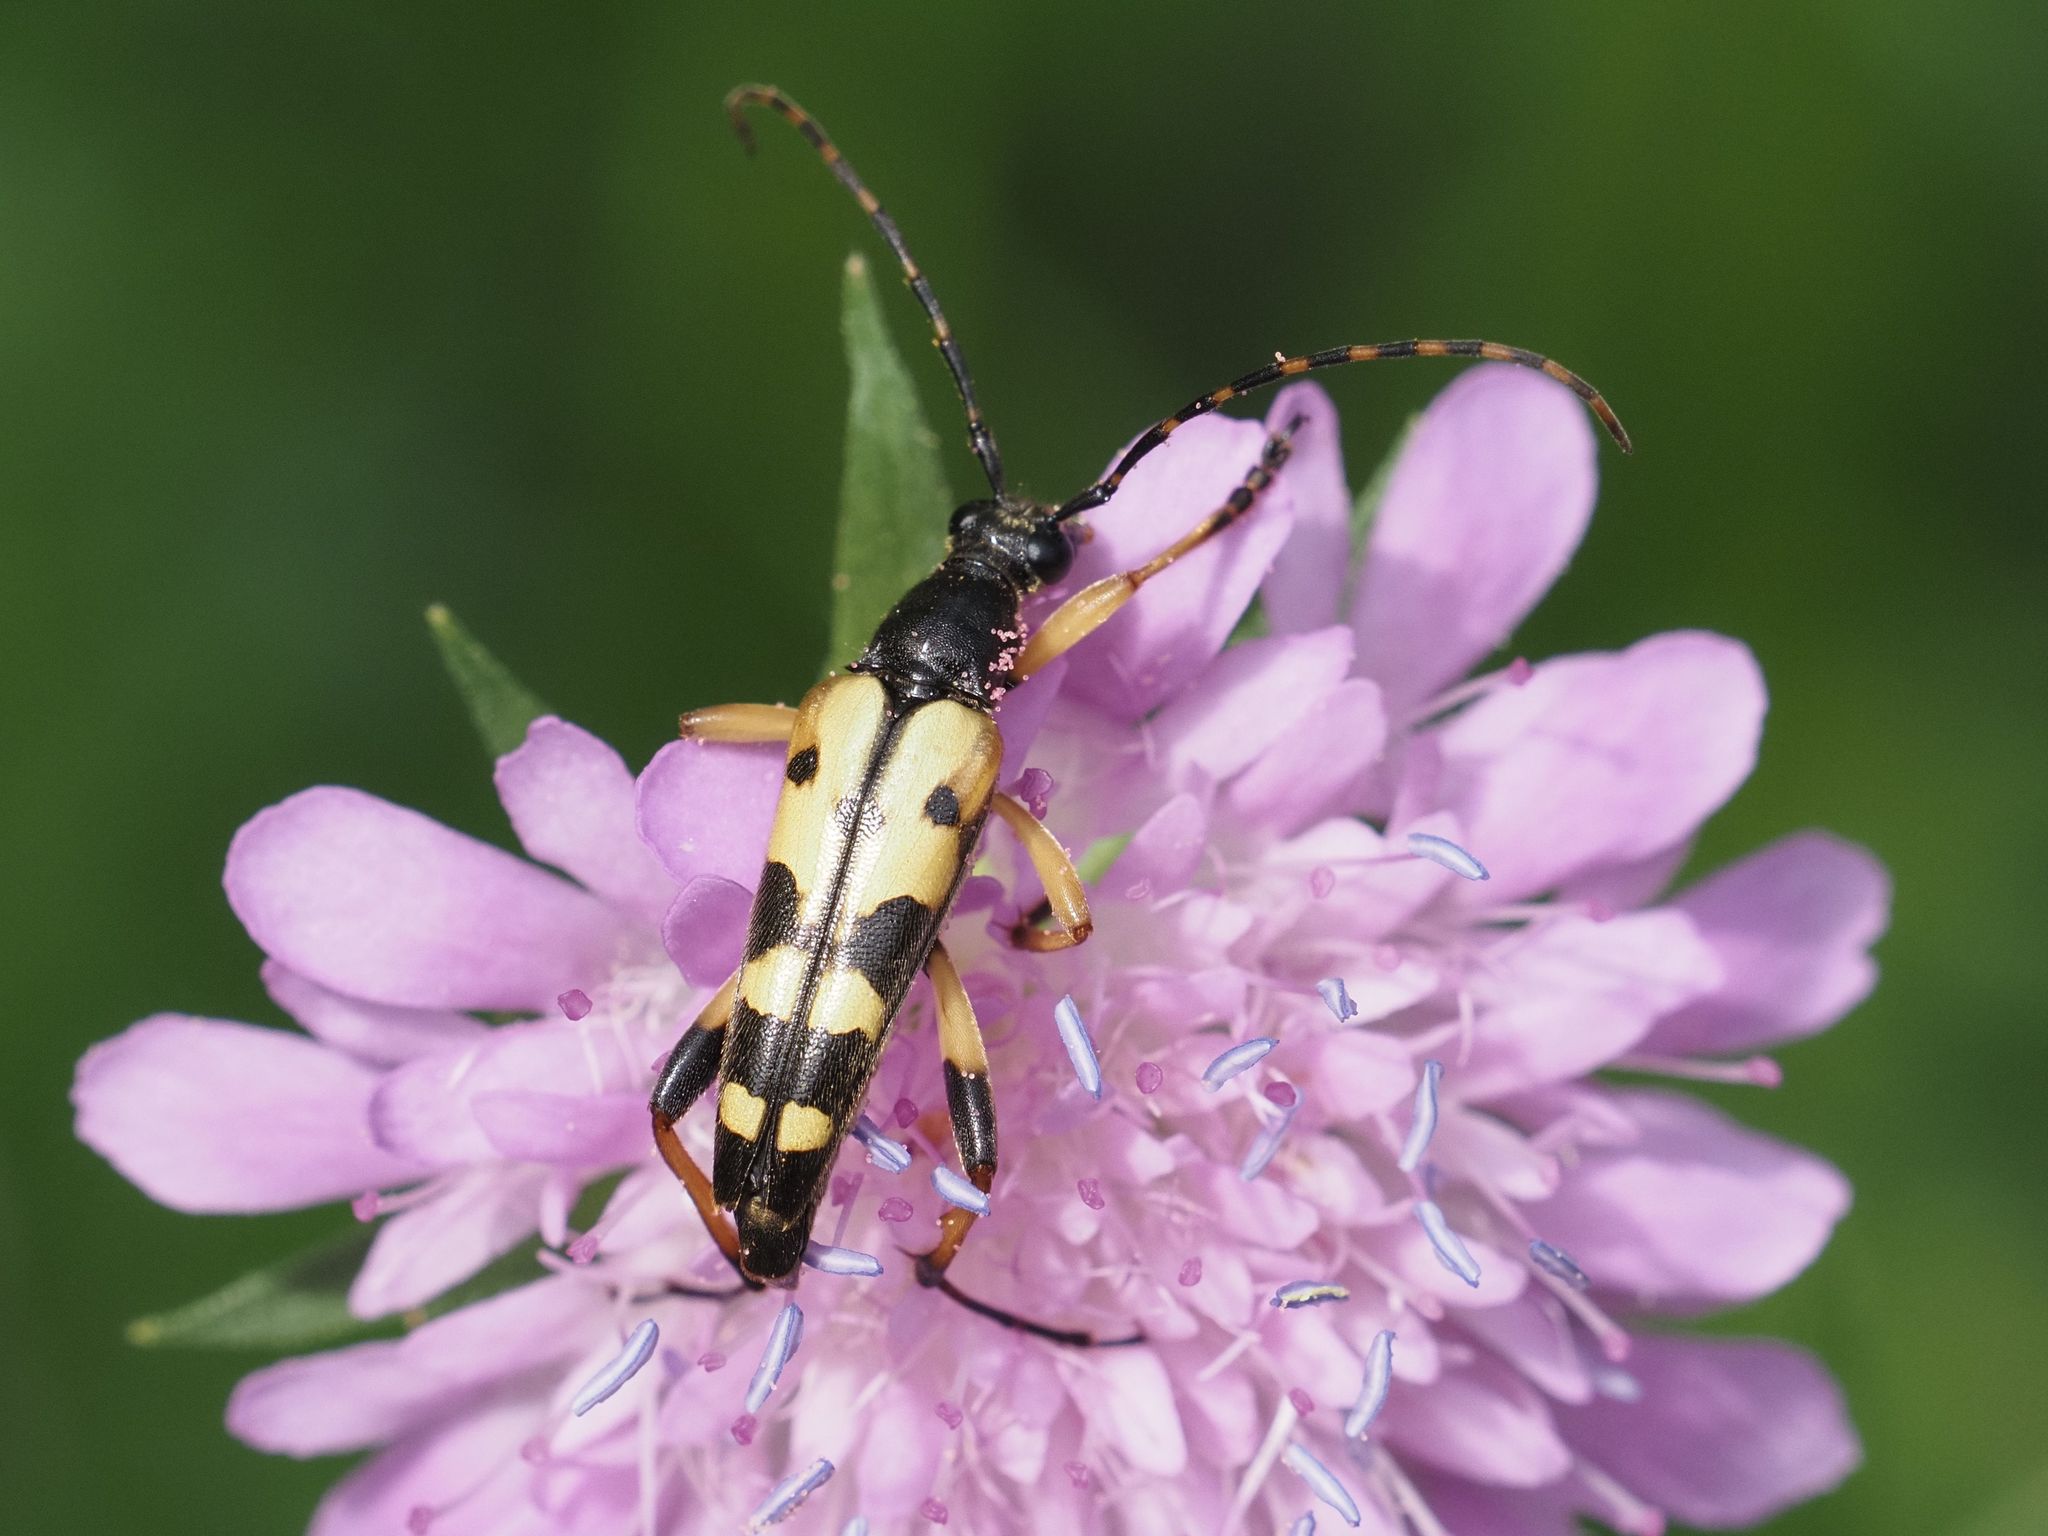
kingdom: Animalia
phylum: Arthropoda
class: Insecta
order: Coleoptera
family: Cerambycidae
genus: Rutpela
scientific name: Rutpela maculata
